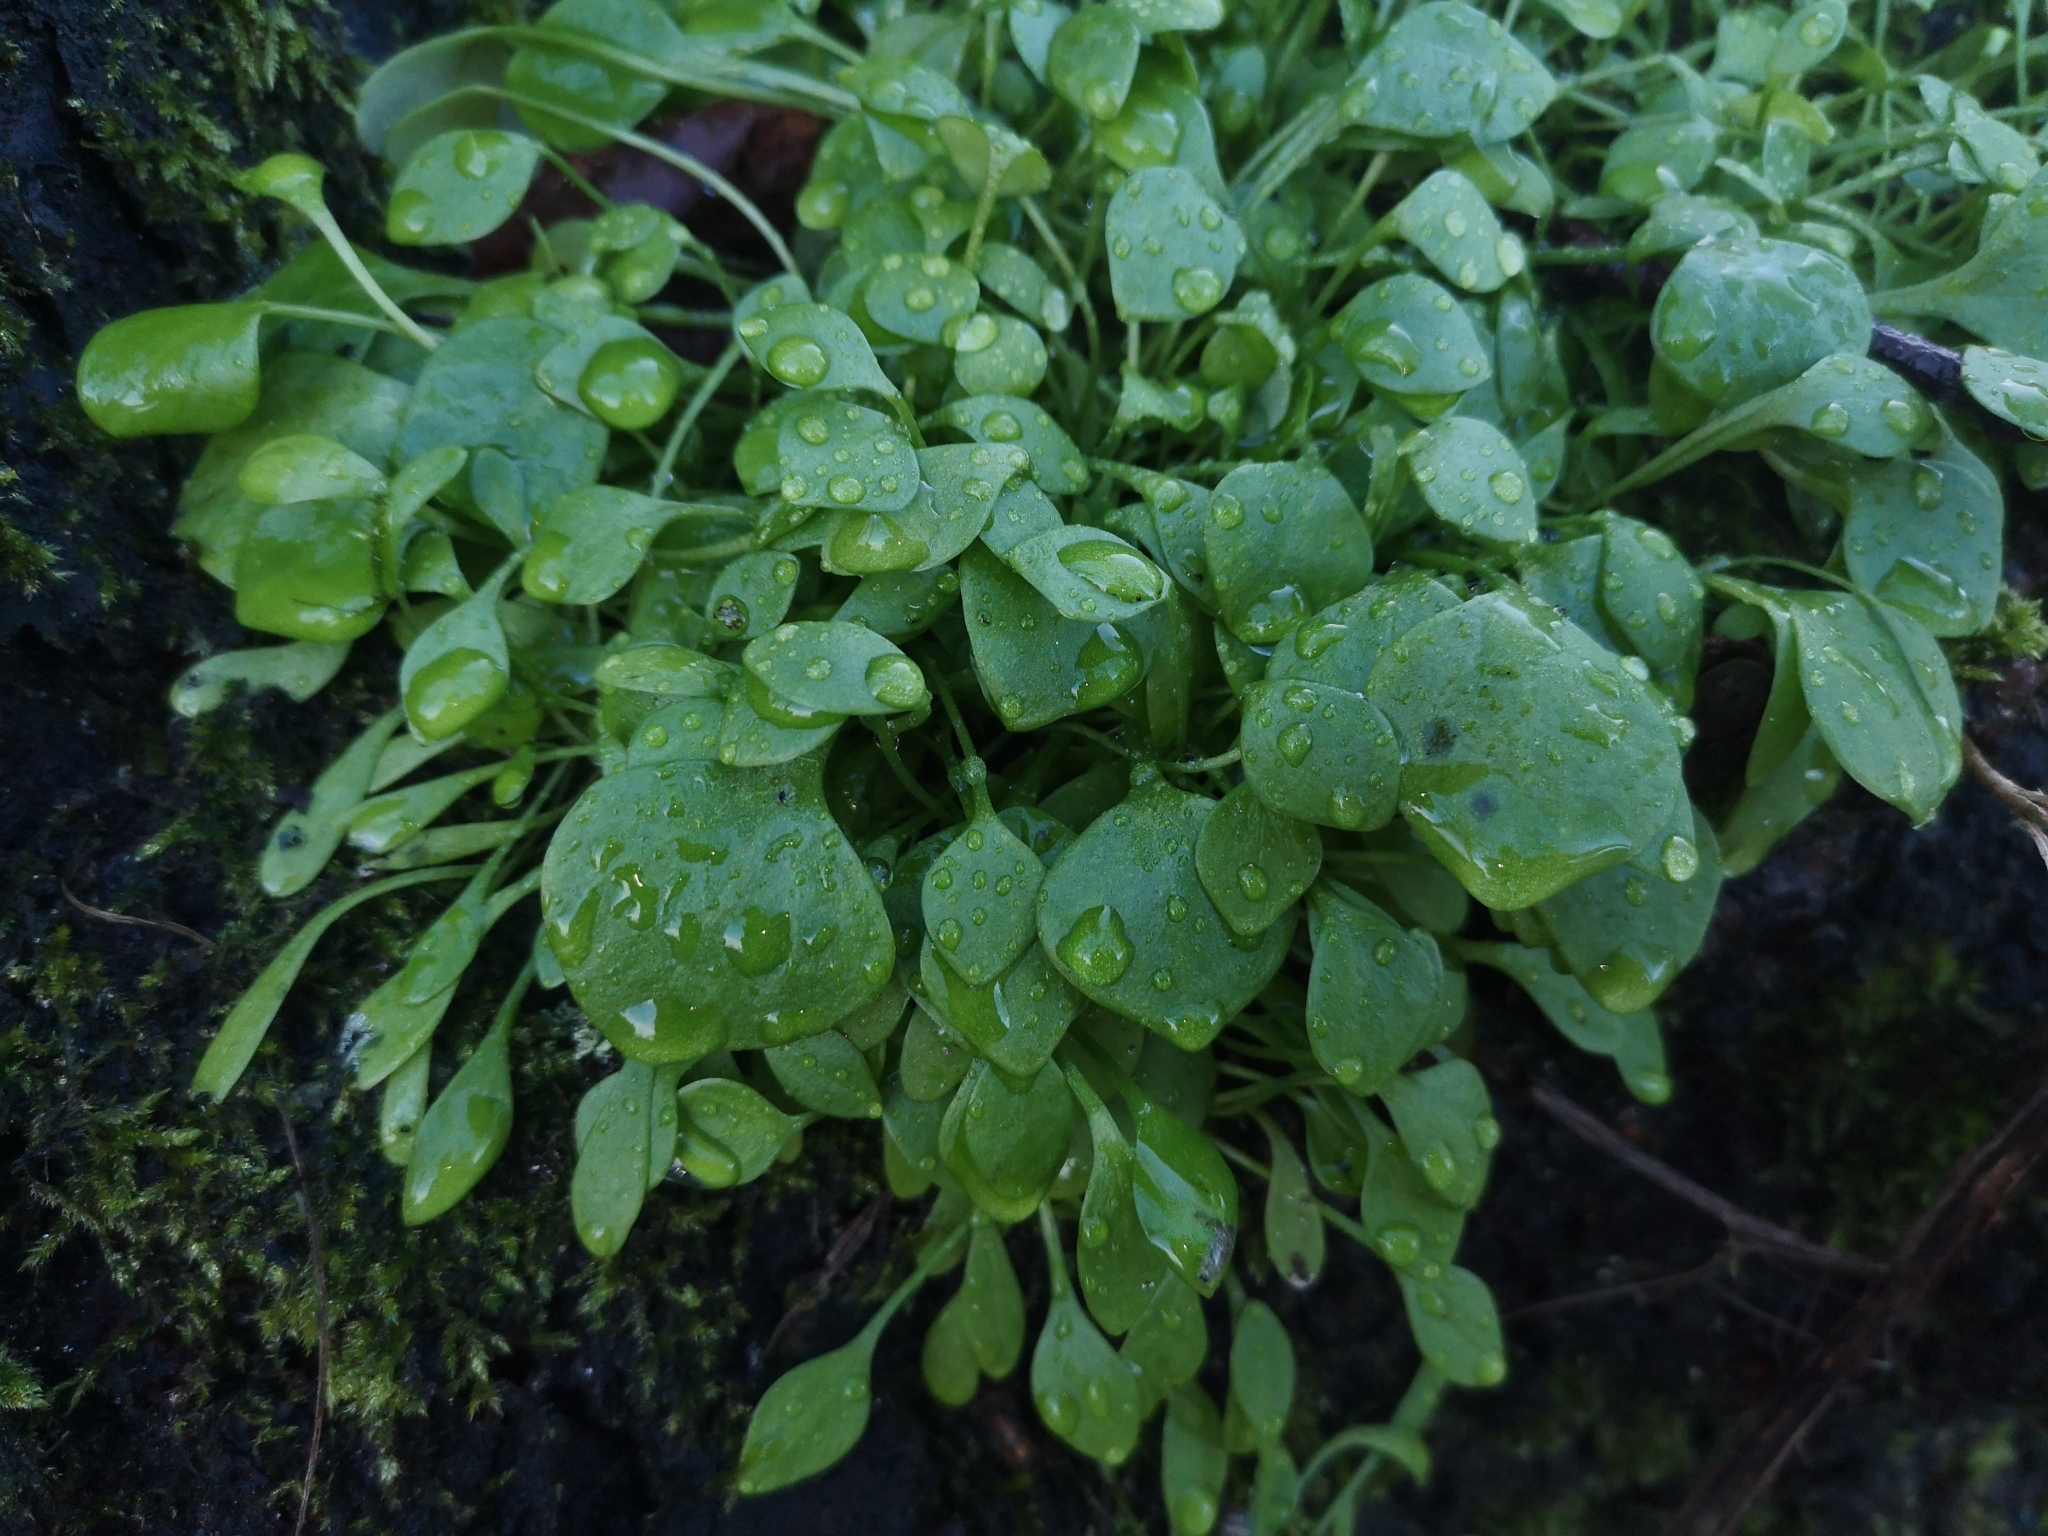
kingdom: Plantae
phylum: Tracheophyta
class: Magnoliopsida
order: Caryophyllales
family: Montiaceae
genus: Claytonia
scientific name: Claytonia perfoliata
